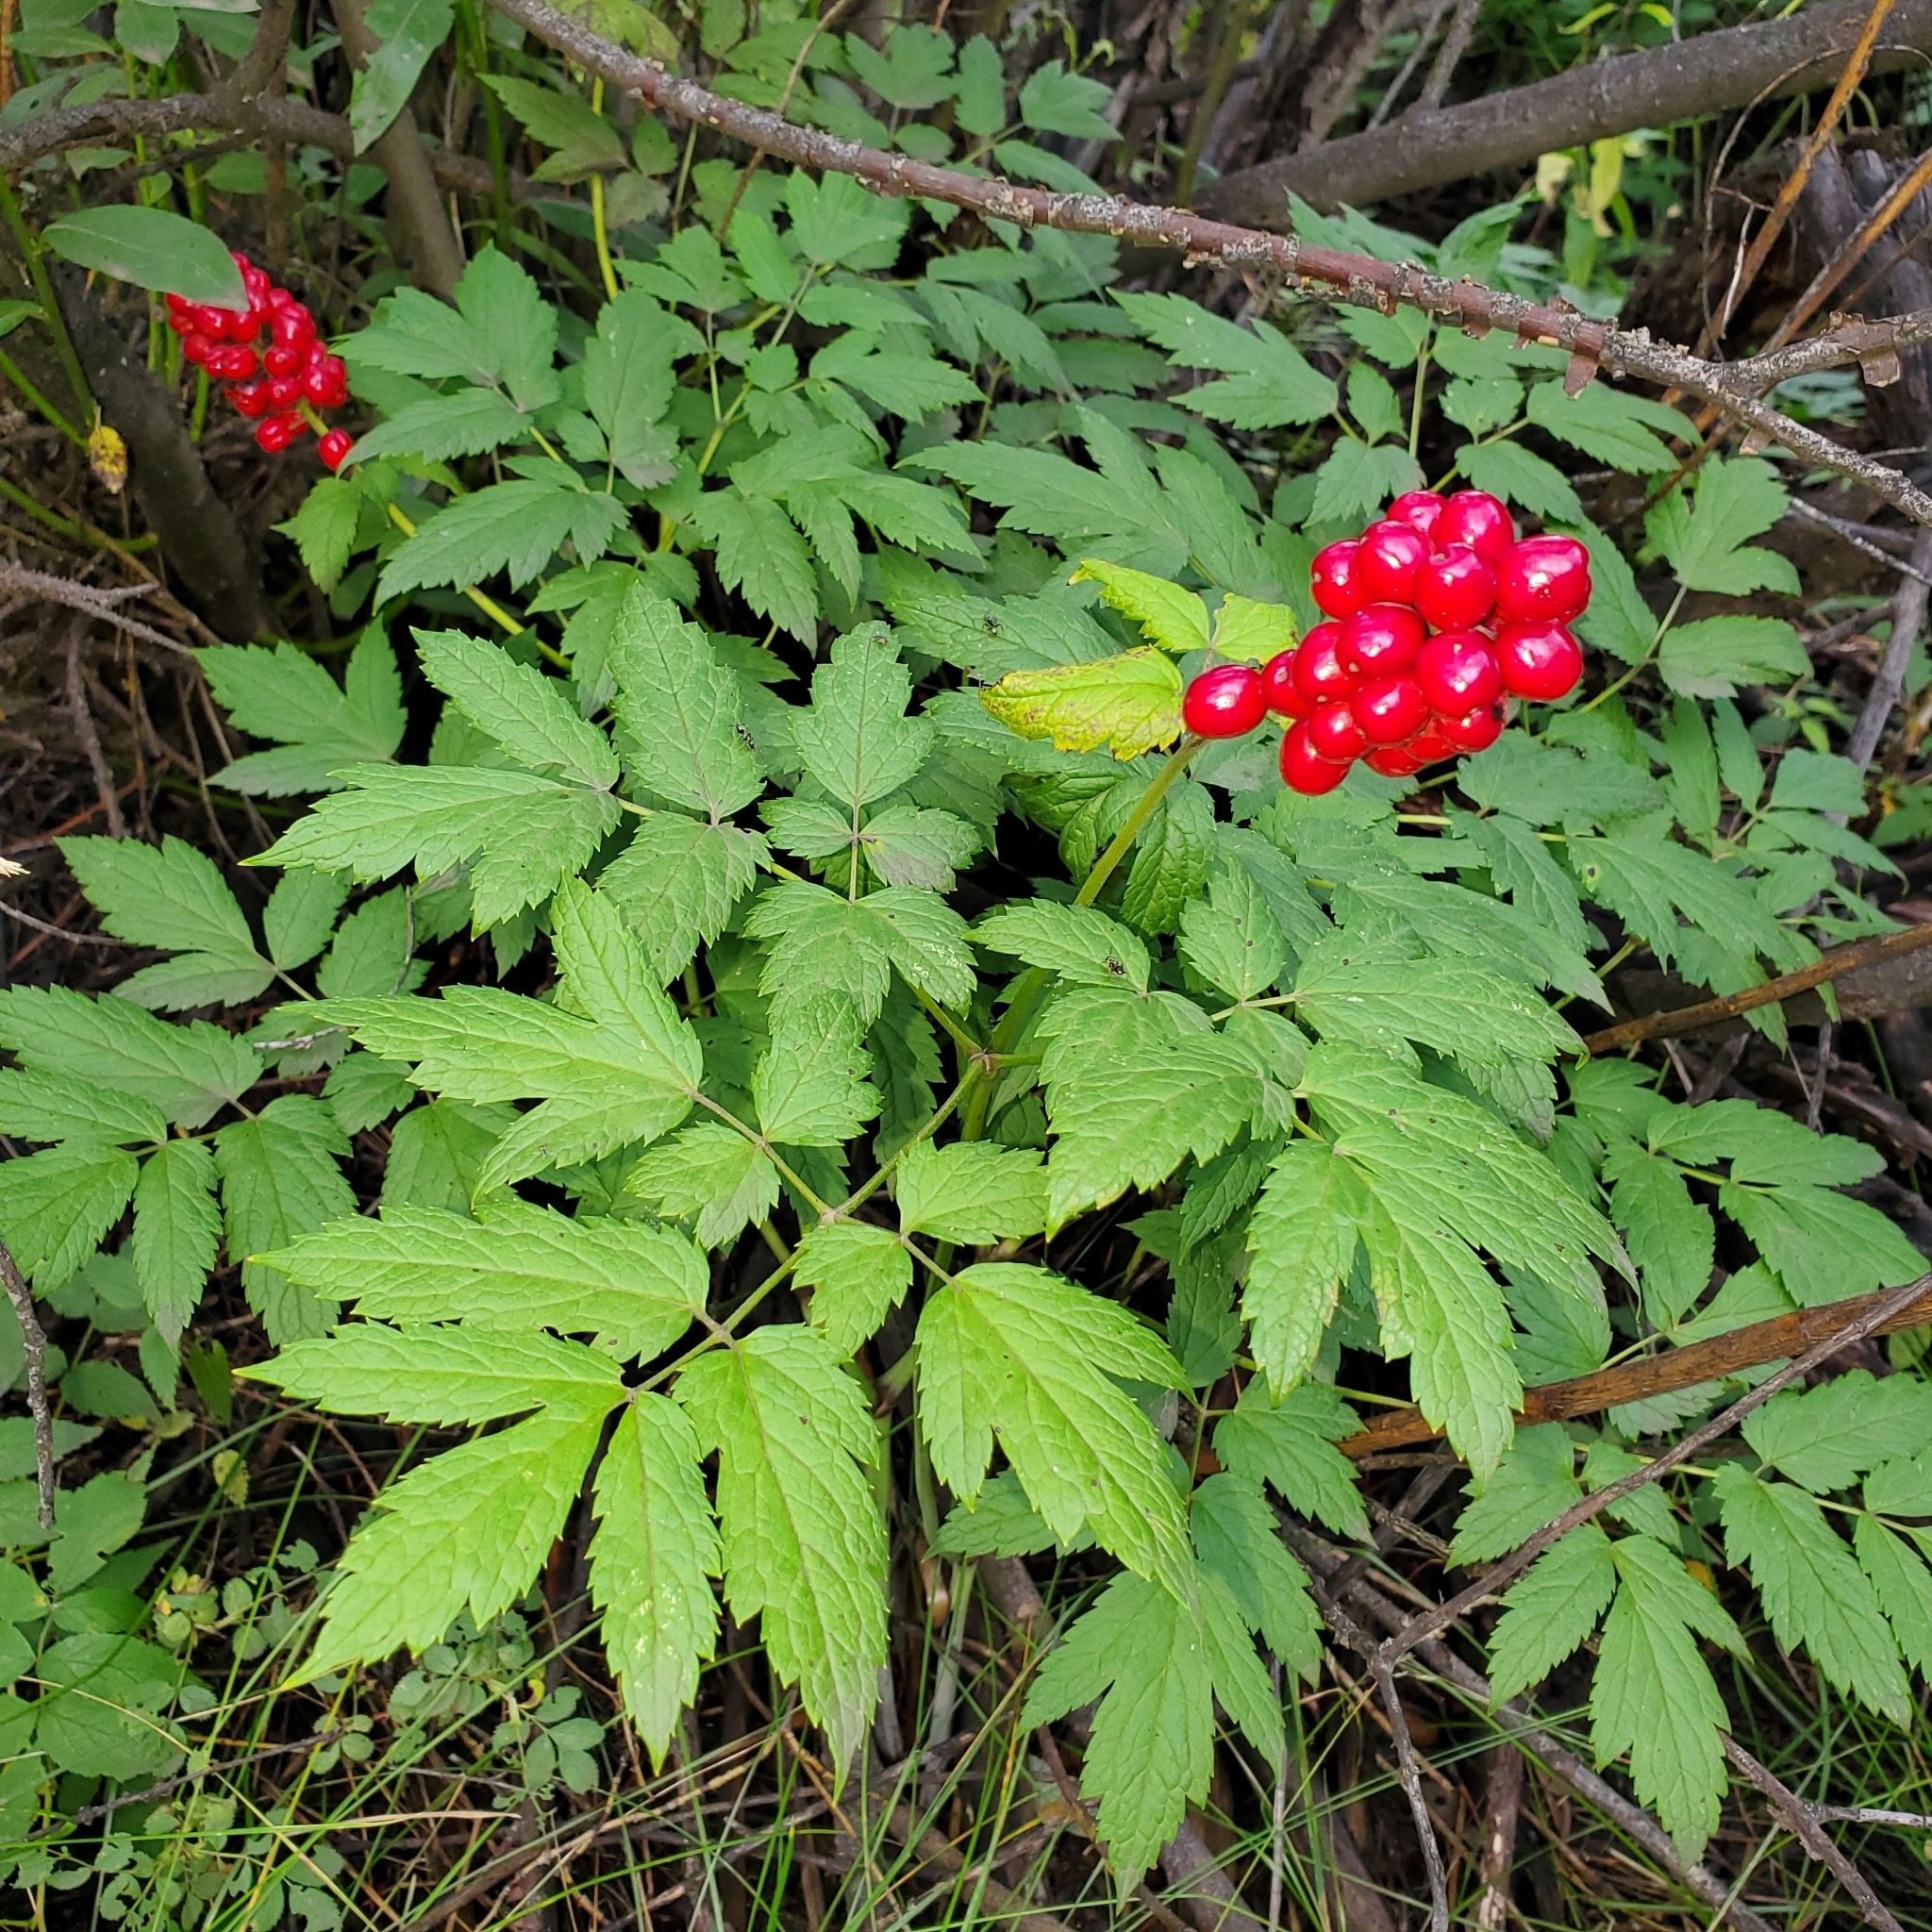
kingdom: Plantae
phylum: Tracheophyta
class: Magnoliopsida
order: Ranunculales
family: Ranunculaceae
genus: Actaea
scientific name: Actaea rubra
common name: Red baneberry
